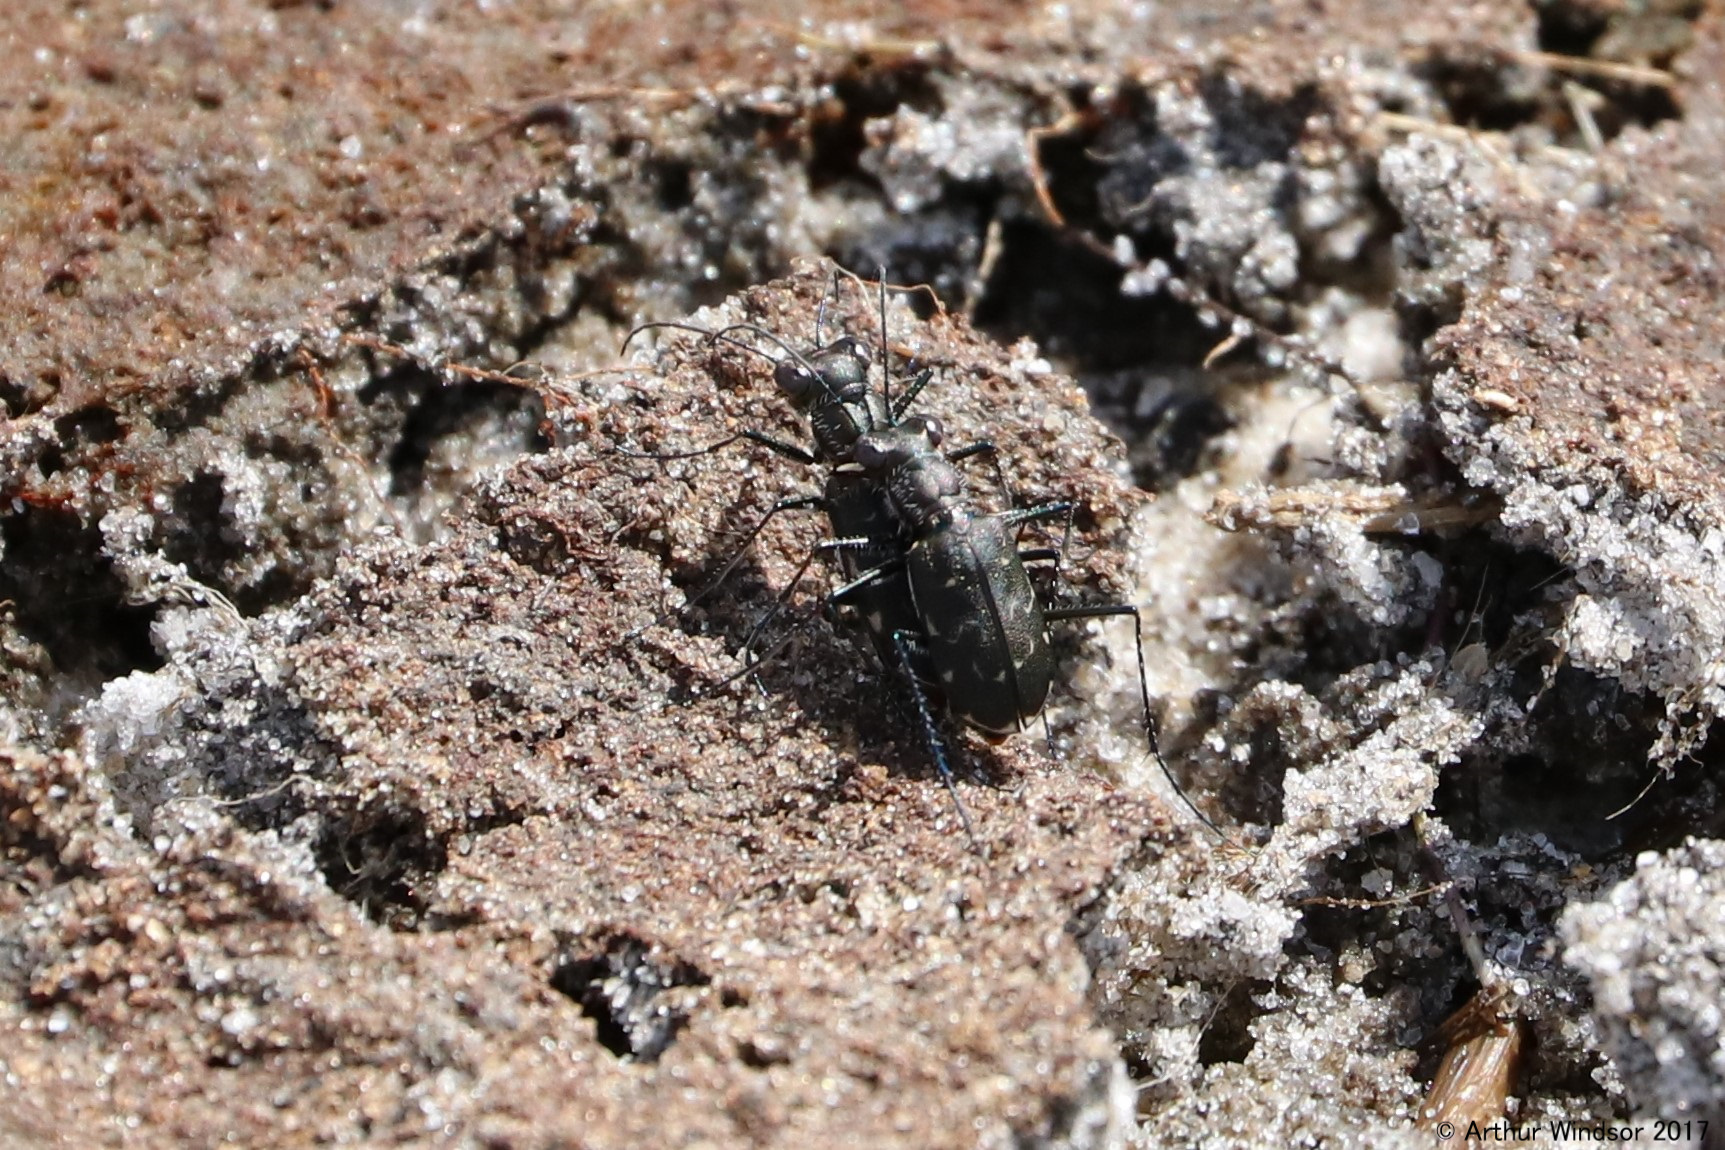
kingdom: Animalia
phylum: Arthropoda
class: Insecta
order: Coleoptera
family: Carabidae
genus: Cicindela
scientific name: Cicindela trifasciata
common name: Mudflat tiger beetle
